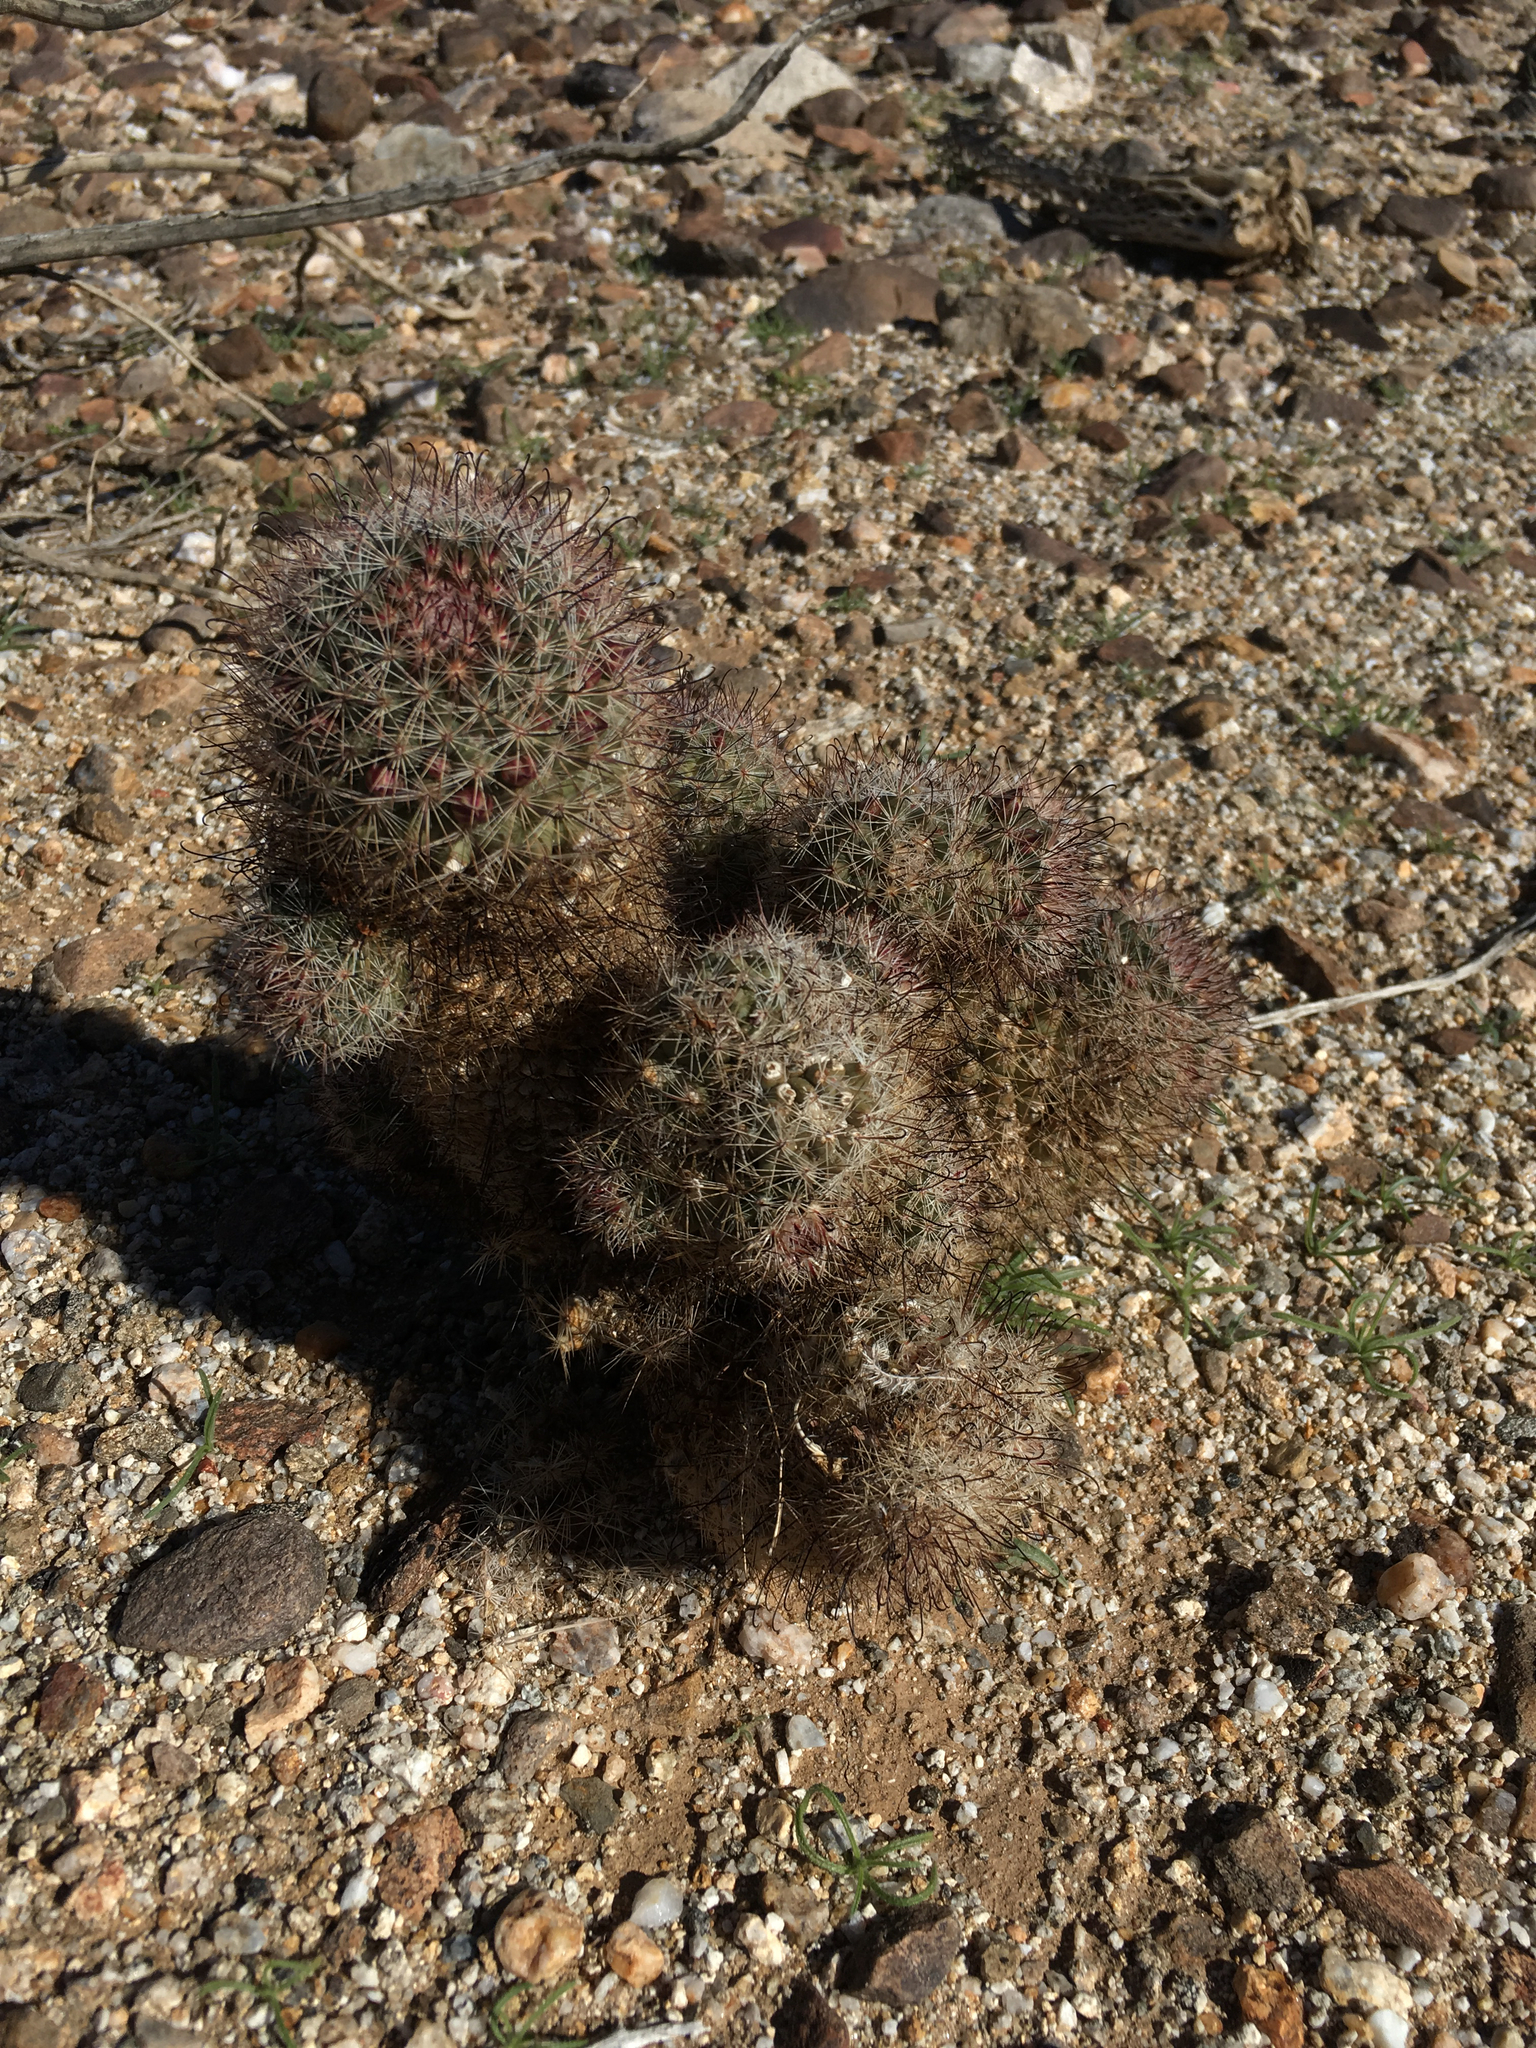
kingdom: Plantae
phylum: Tracheophyta
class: Magnoliopsida
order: Caryophyllales
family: Cactaceae
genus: Cochemiea
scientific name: Cochemiea dioica
